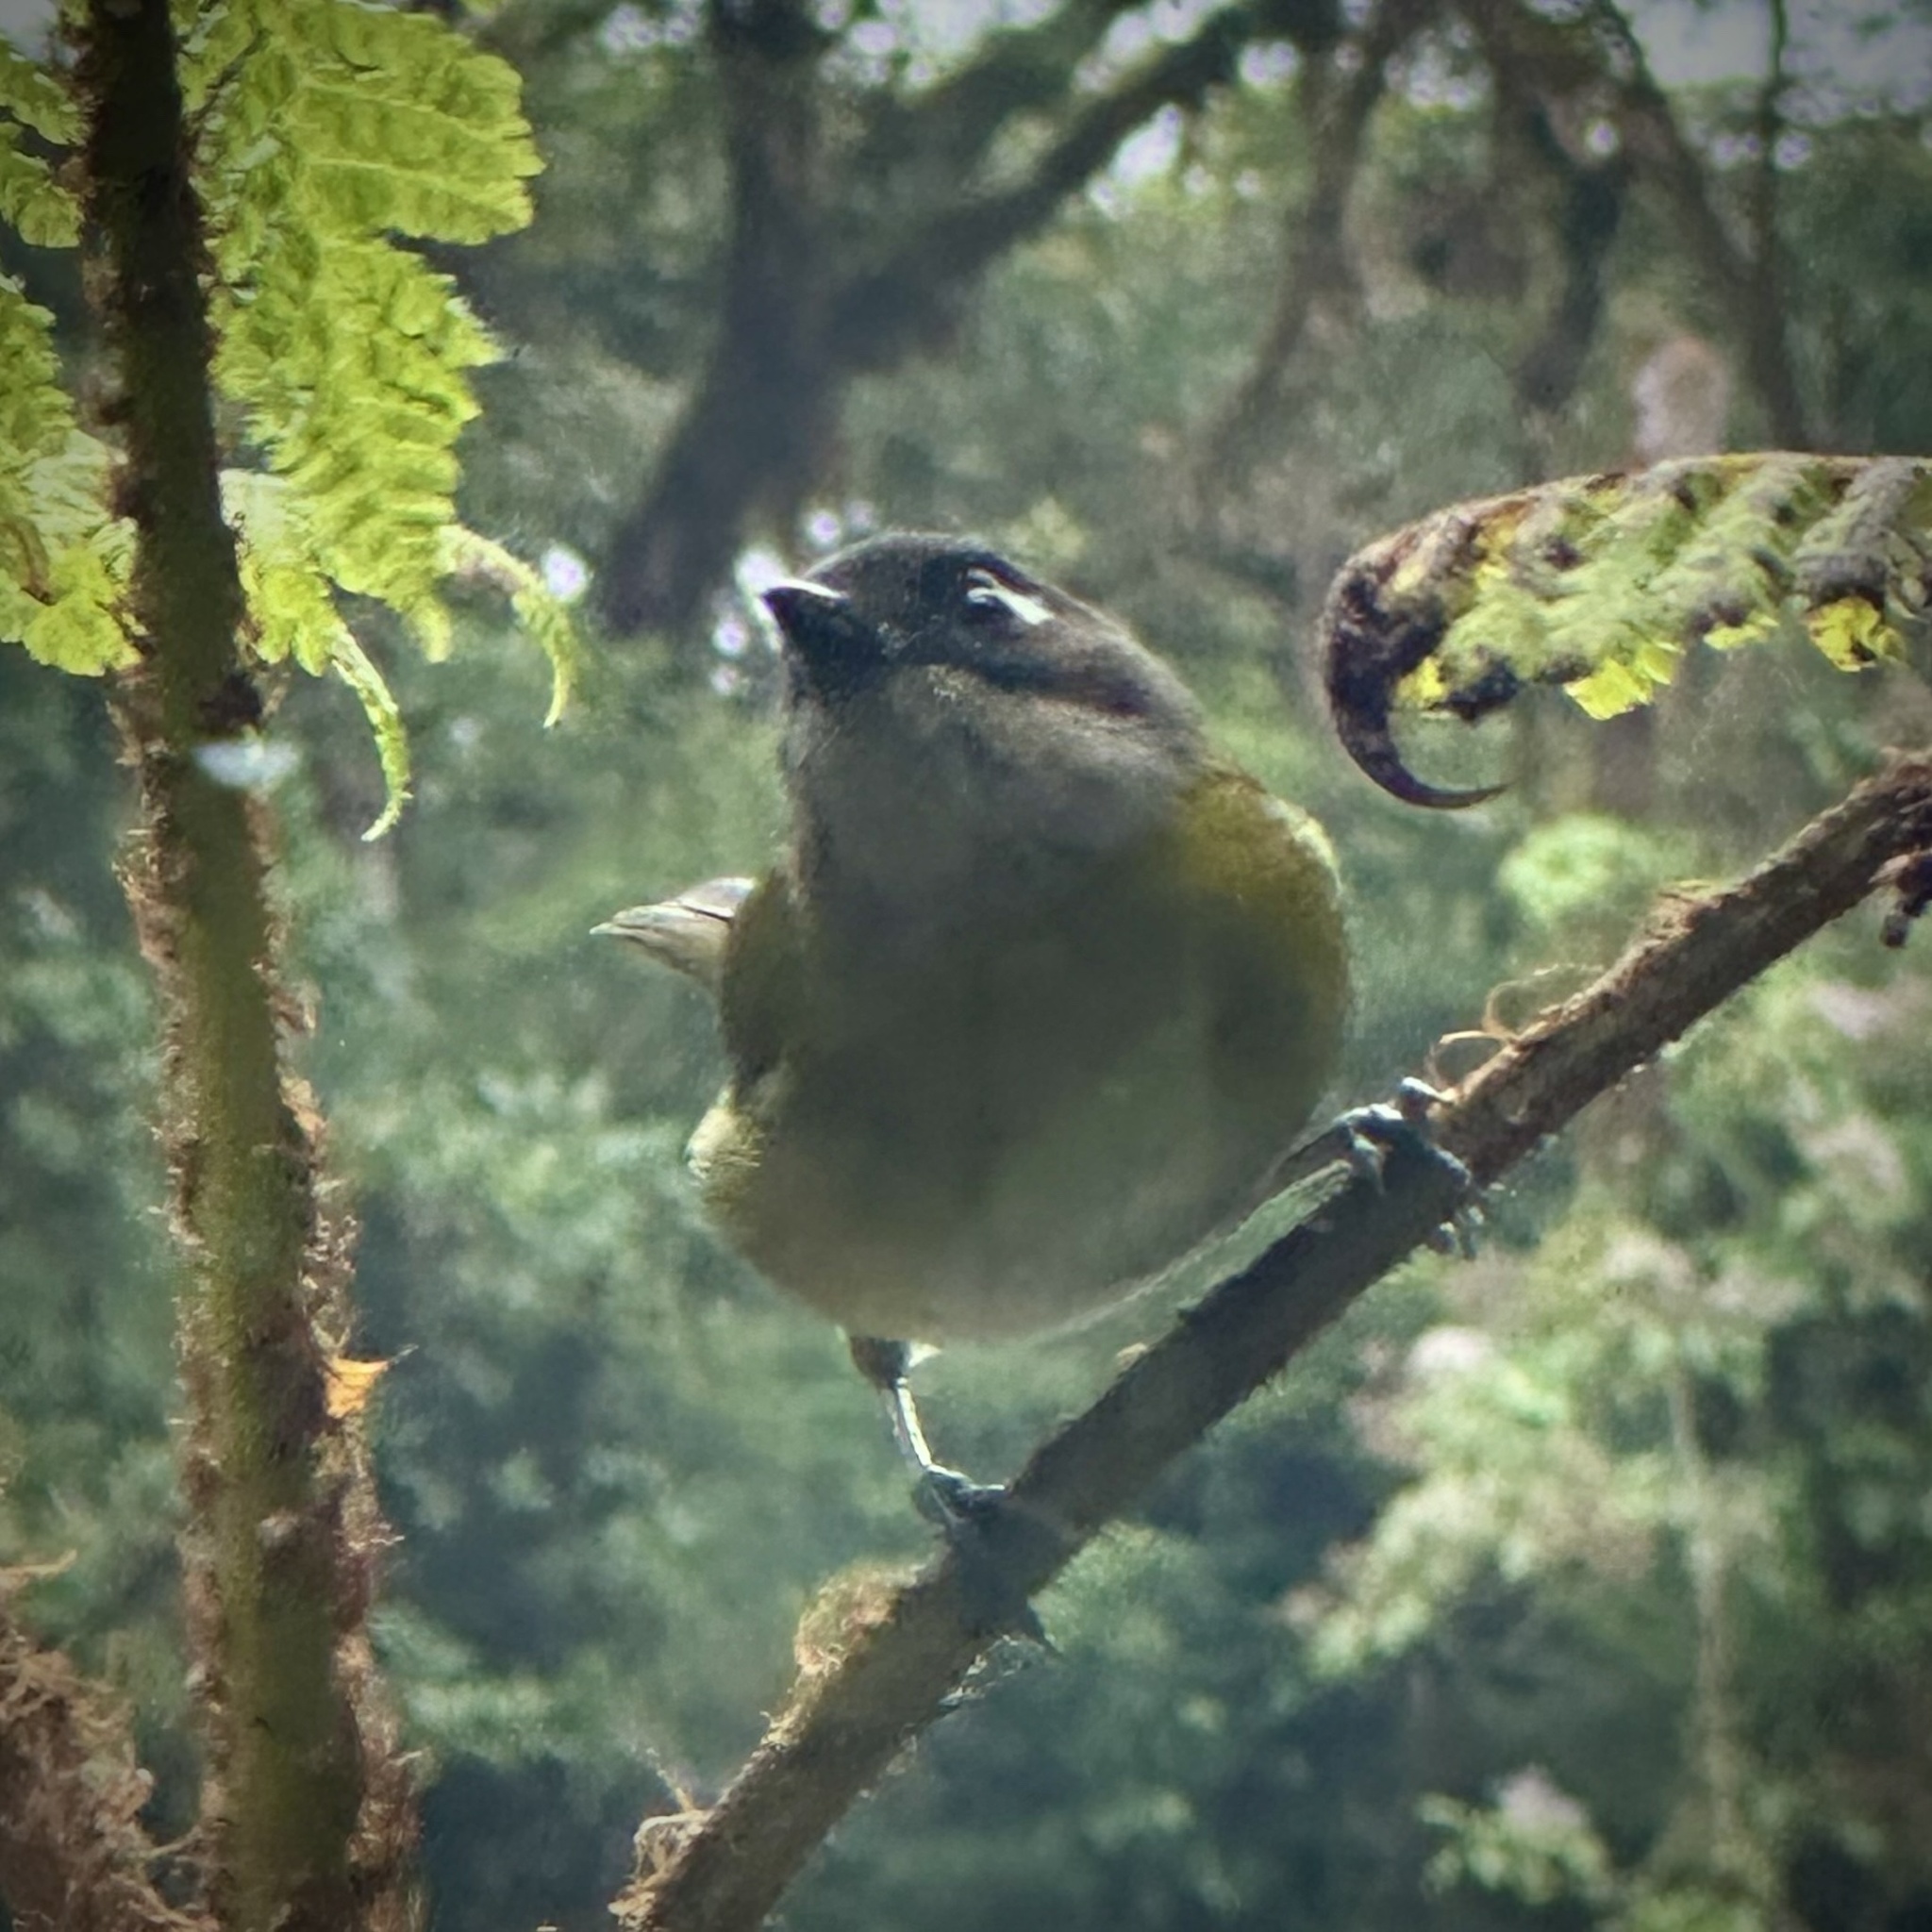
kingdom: Animalia
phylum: Chordata
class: Aves
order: Passeriformes
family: Passerellidae
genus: Chlorospingus
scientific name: Chlorospingus flavopectus
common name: Common chlorospingus
